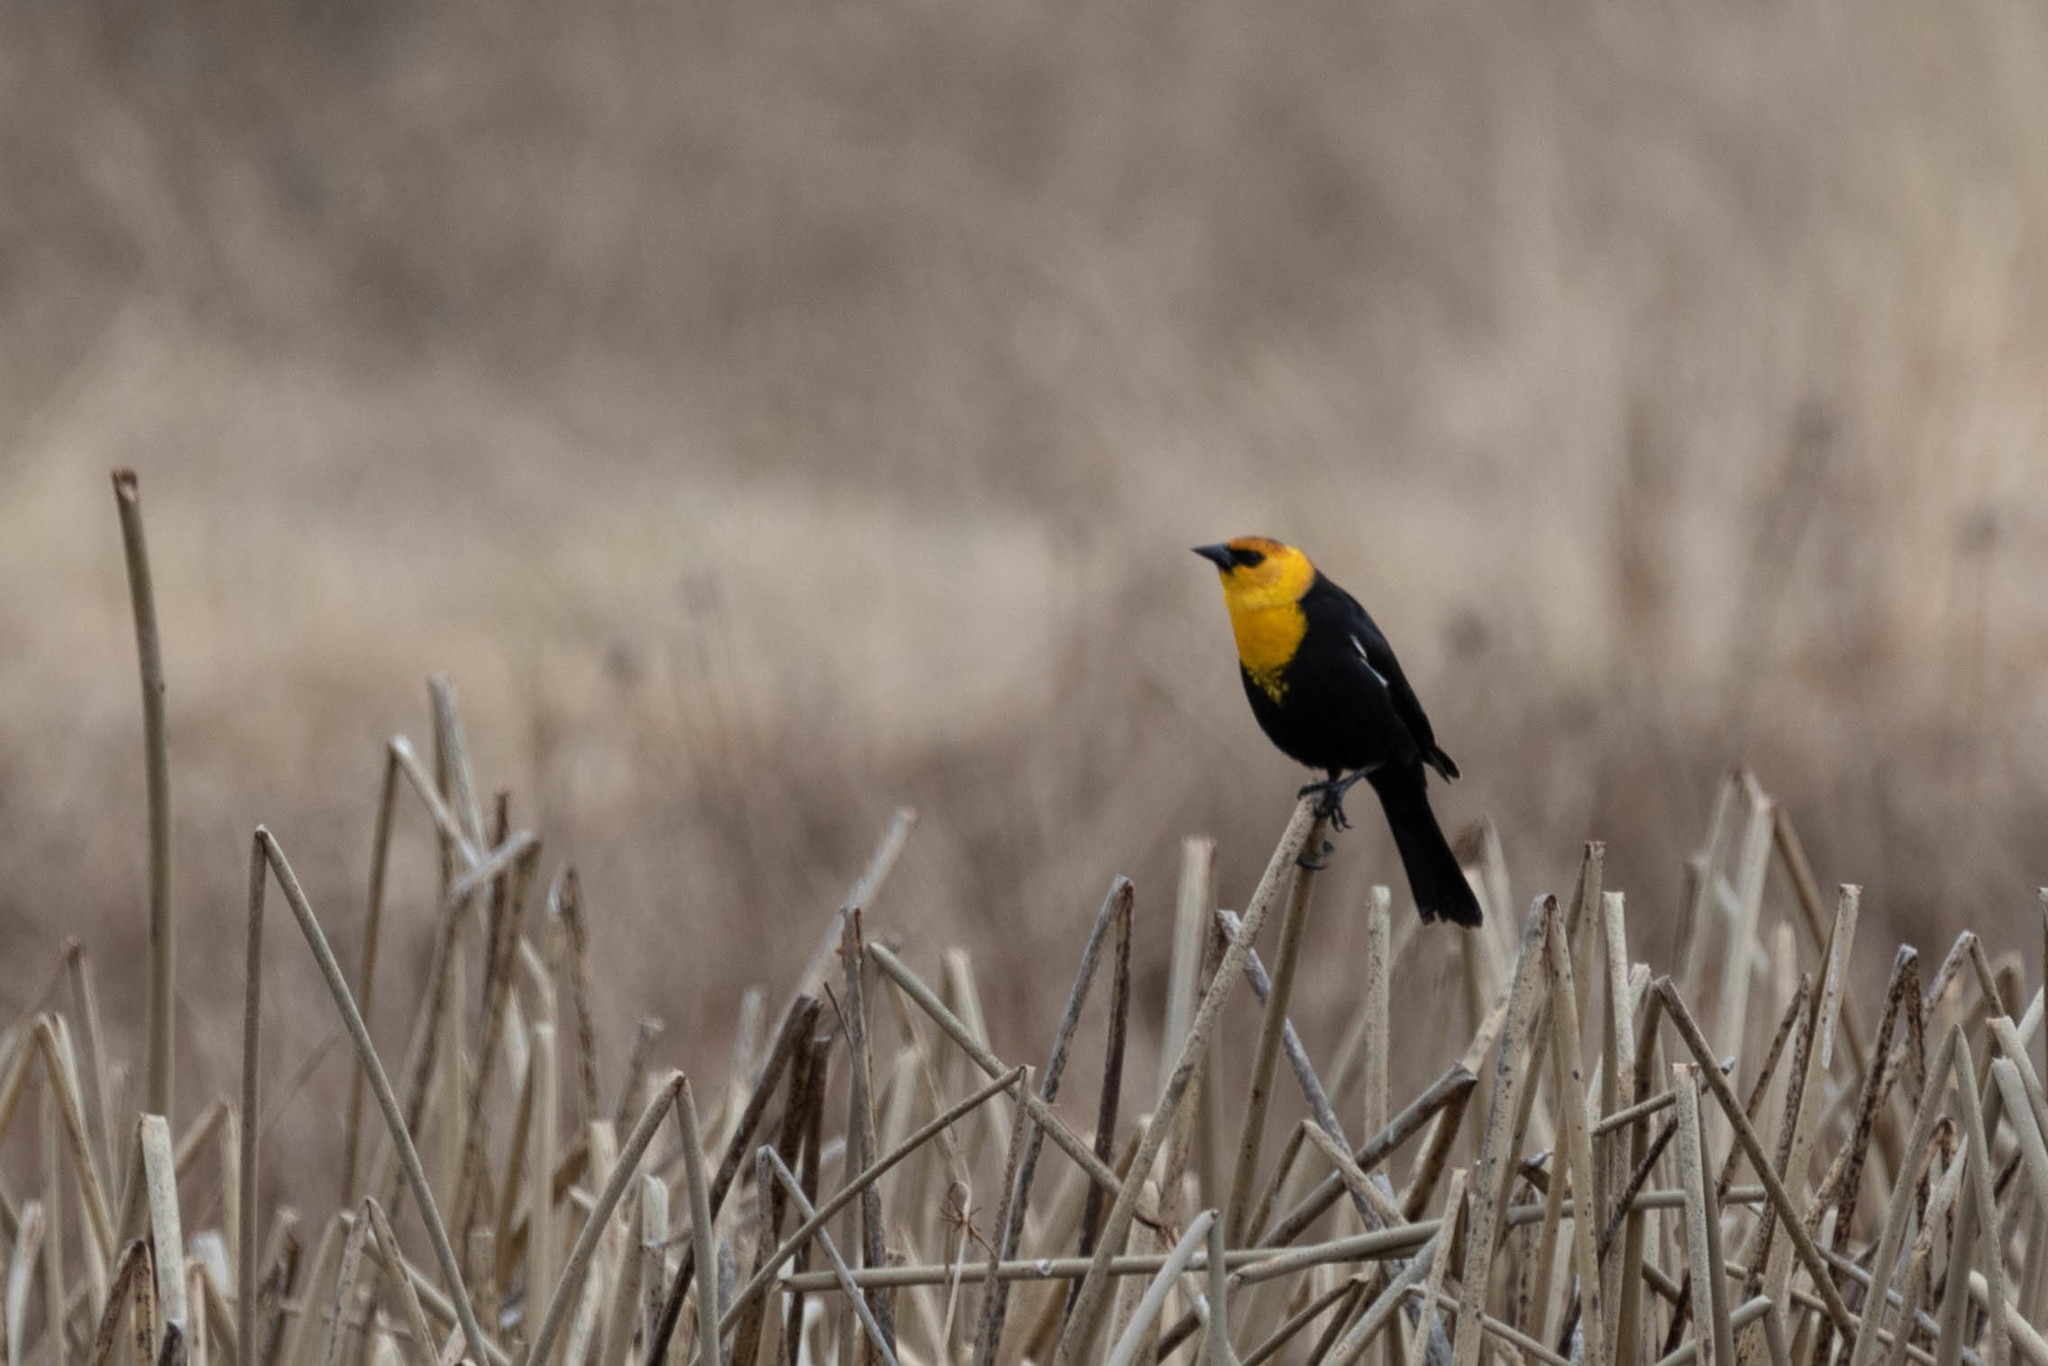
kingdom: Animalia
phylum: Chordata
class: Aves
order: Passeriformes
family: Icteridae
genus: Xanthocephalus
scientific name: Xanthocephalus xanthocephalus
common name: Yellow-headed blackbird
